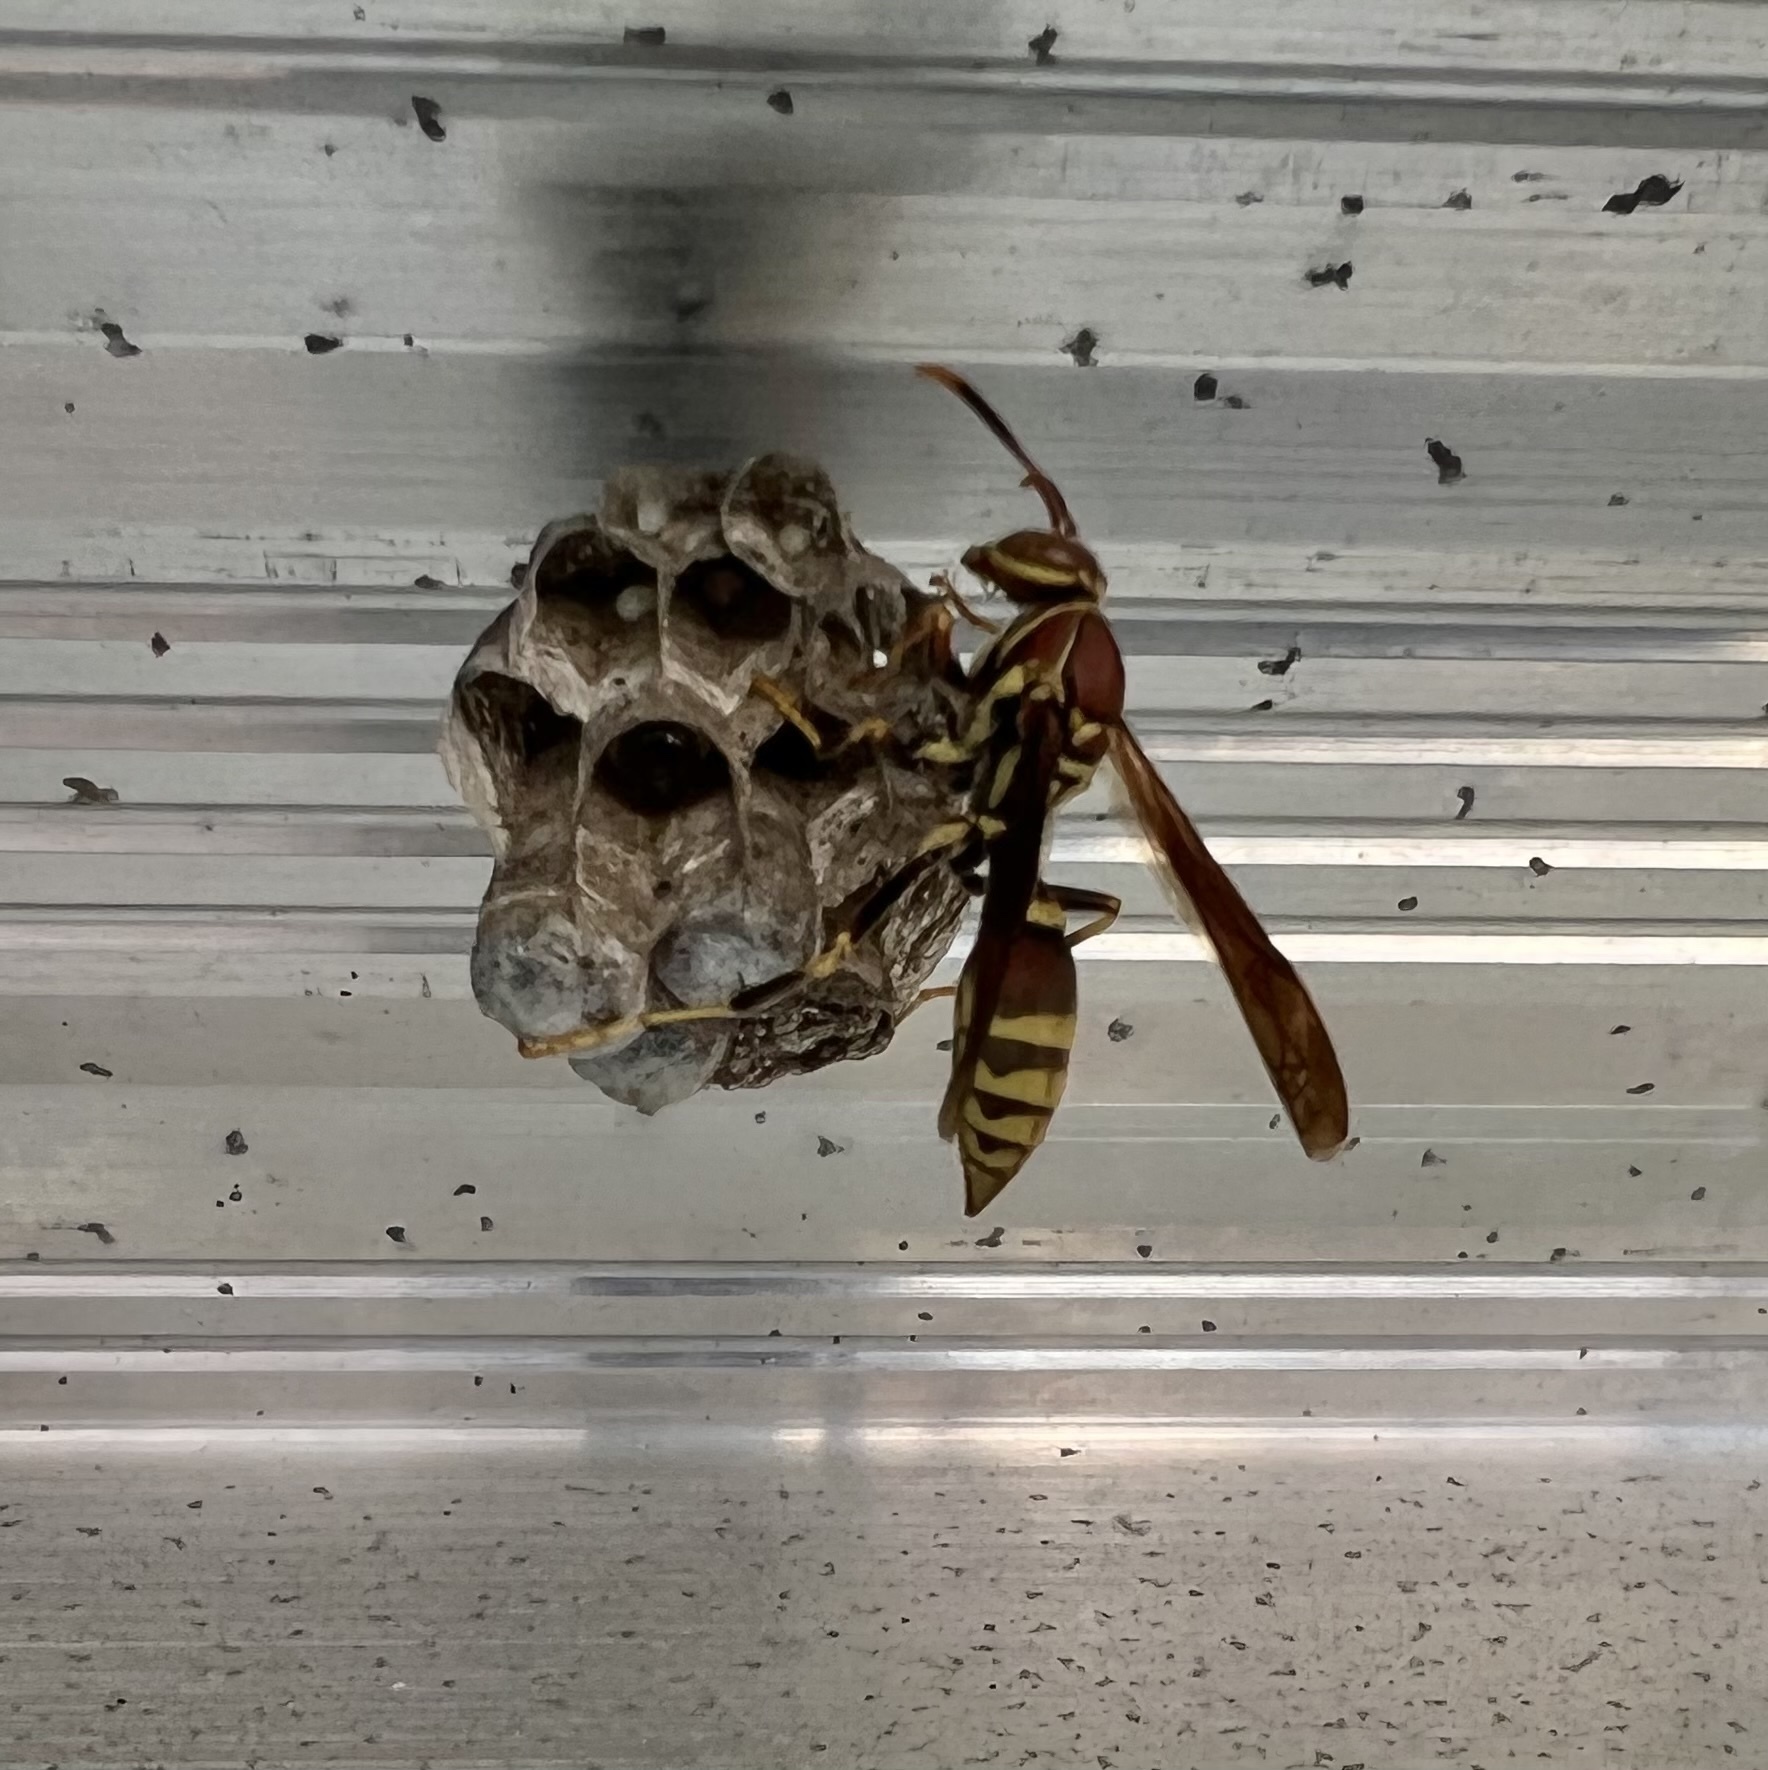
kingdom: Animalia
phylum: Arthropoda
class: Insecta
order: Hymenoptera
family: Eumenidae
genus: Polistes
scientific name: Polistes exclamans
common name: Paper wasp
